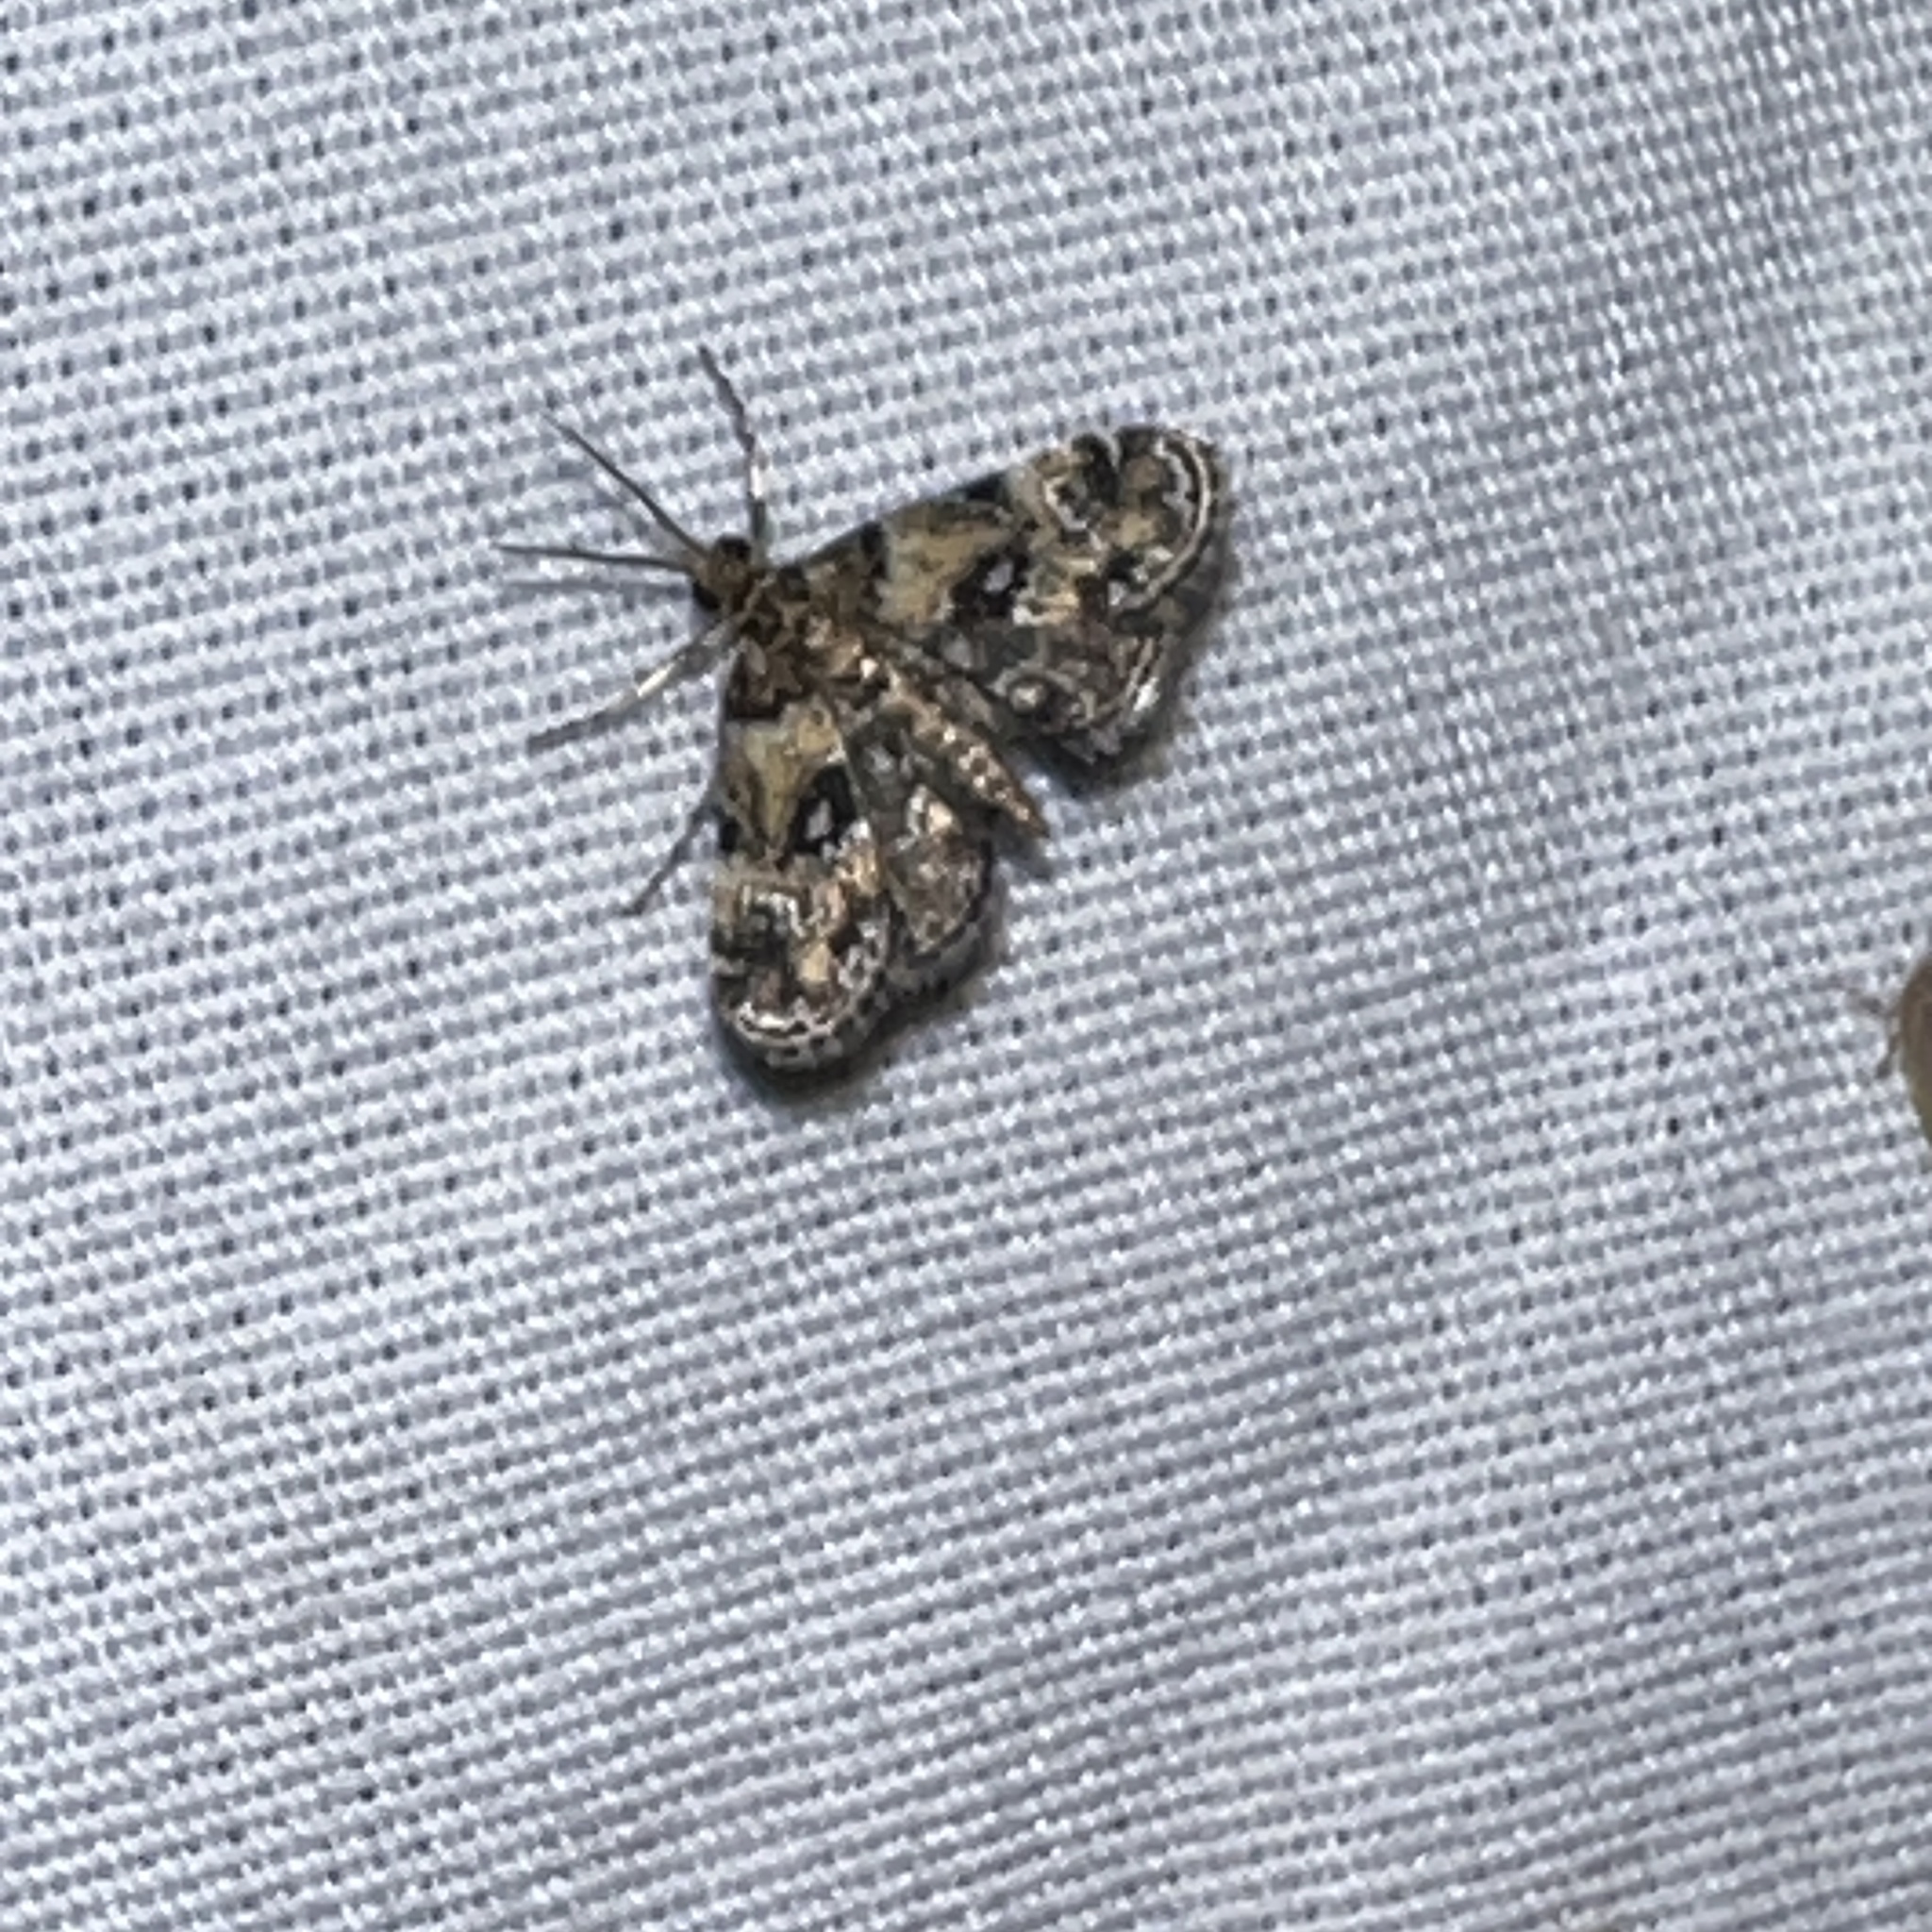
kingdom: Animalia
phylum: Arthropoda
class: Insecta
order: Lepidoptera
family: Crambidae
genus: Elophila
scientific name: Elophila obliteralis
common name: Waterlily leafcutter moth
